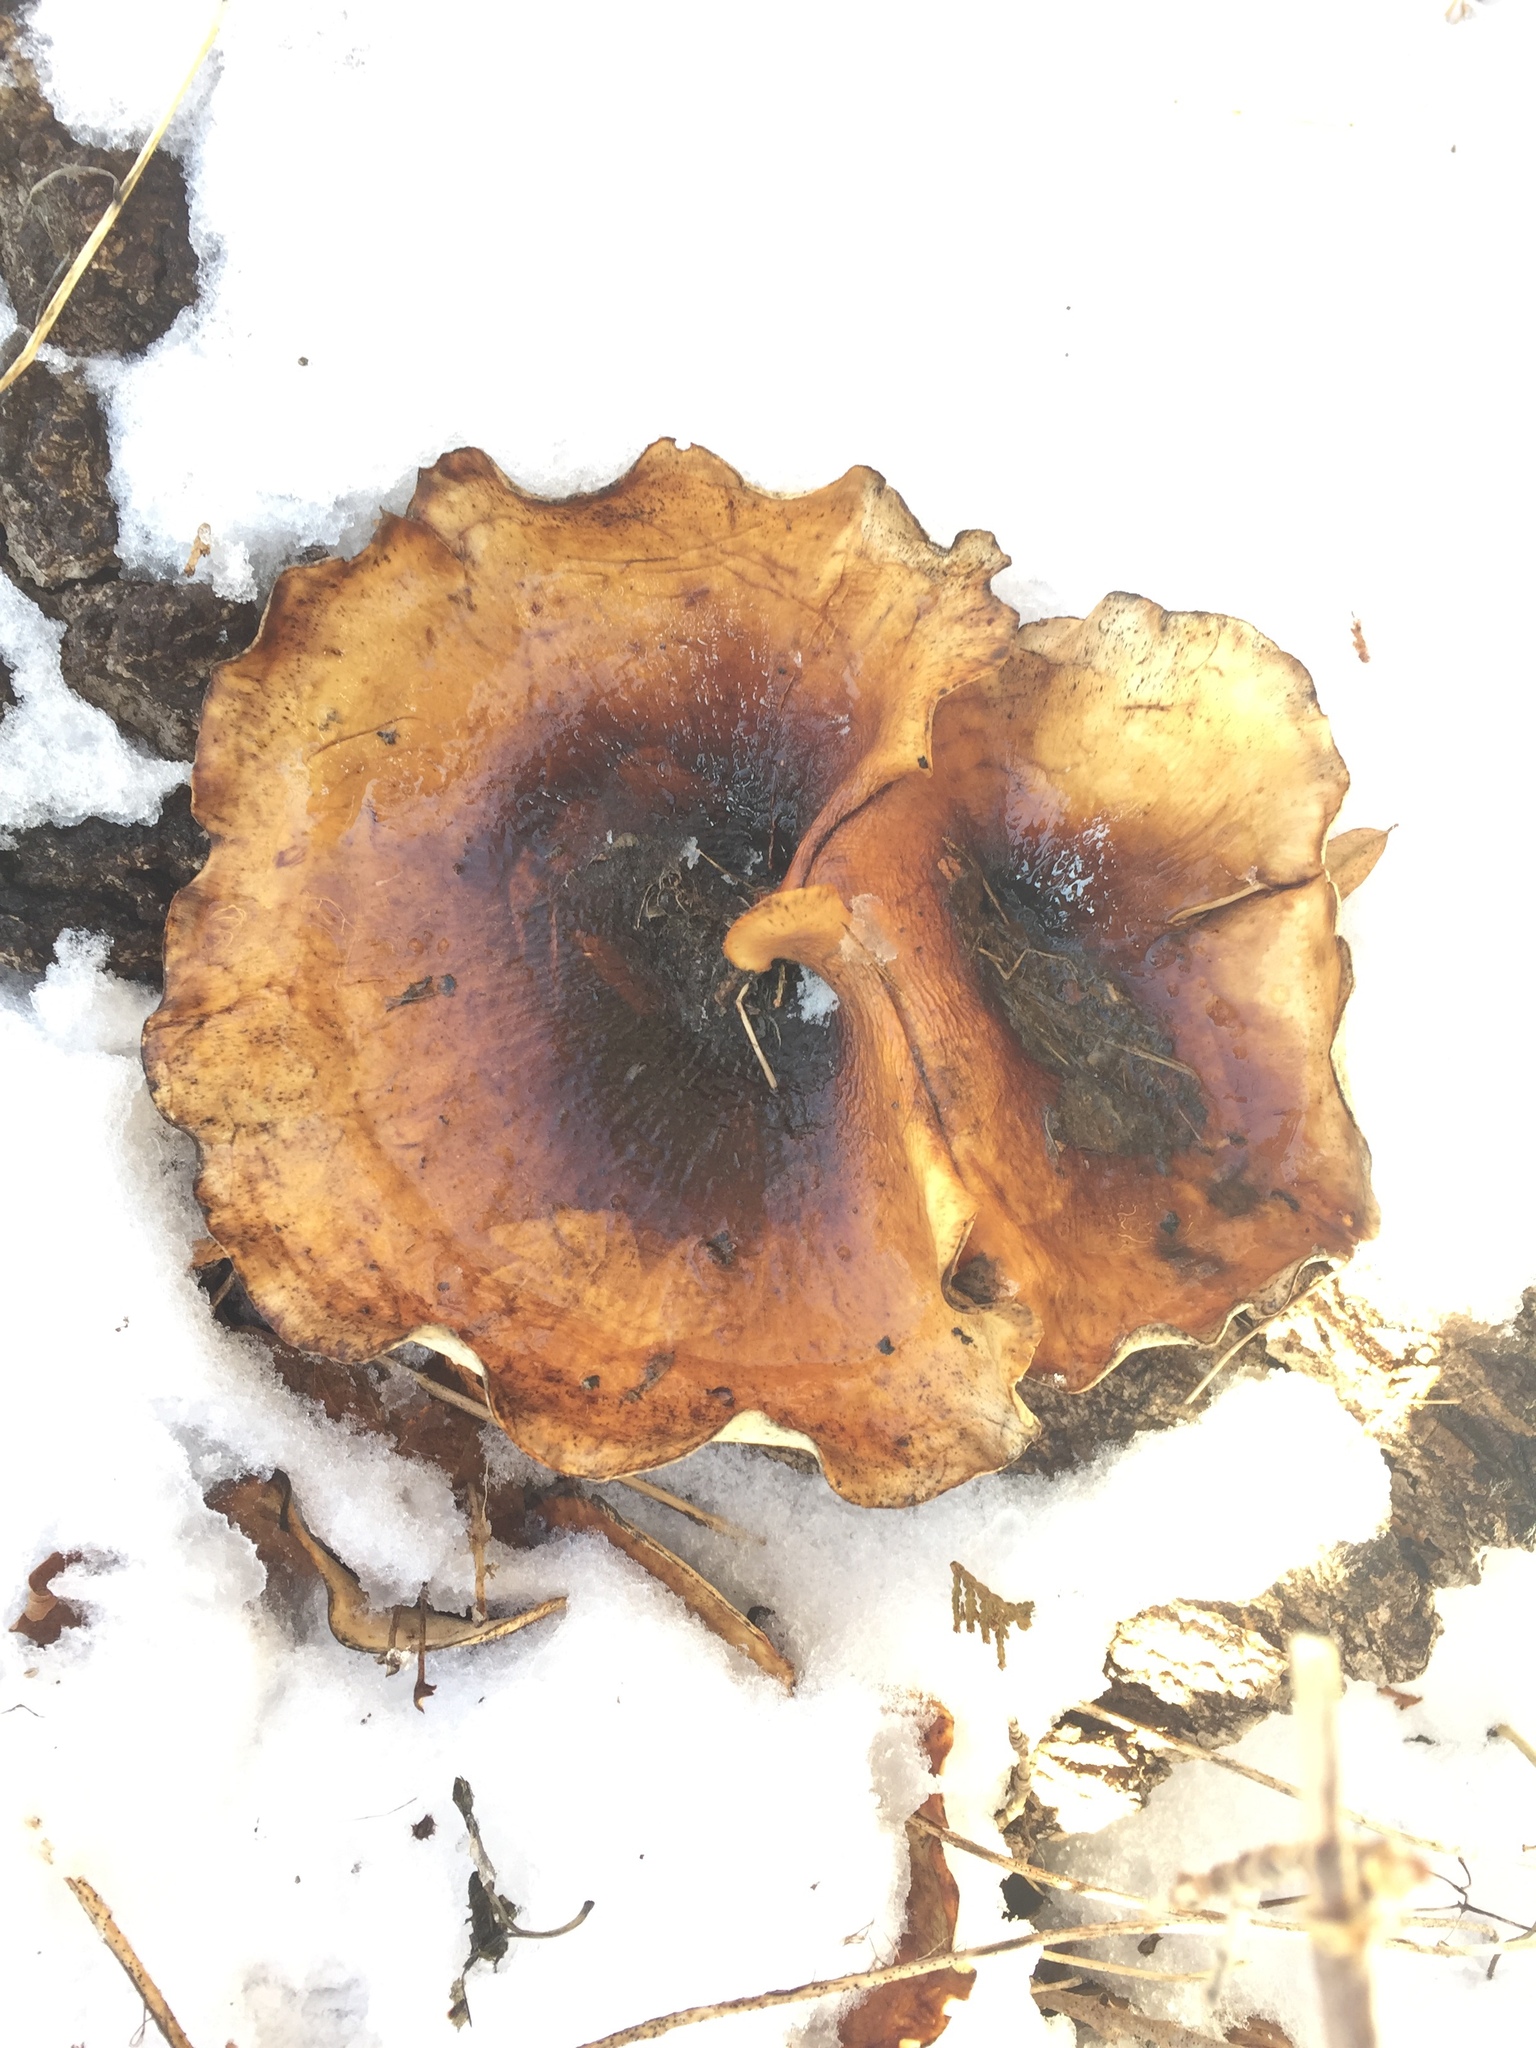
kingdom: Fungi
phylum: Basidiomycota
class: Agaricomycetes
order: Polyporales
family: Polyporaceae
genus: Picipes
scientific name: Picipes badius
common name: Bay polypore
